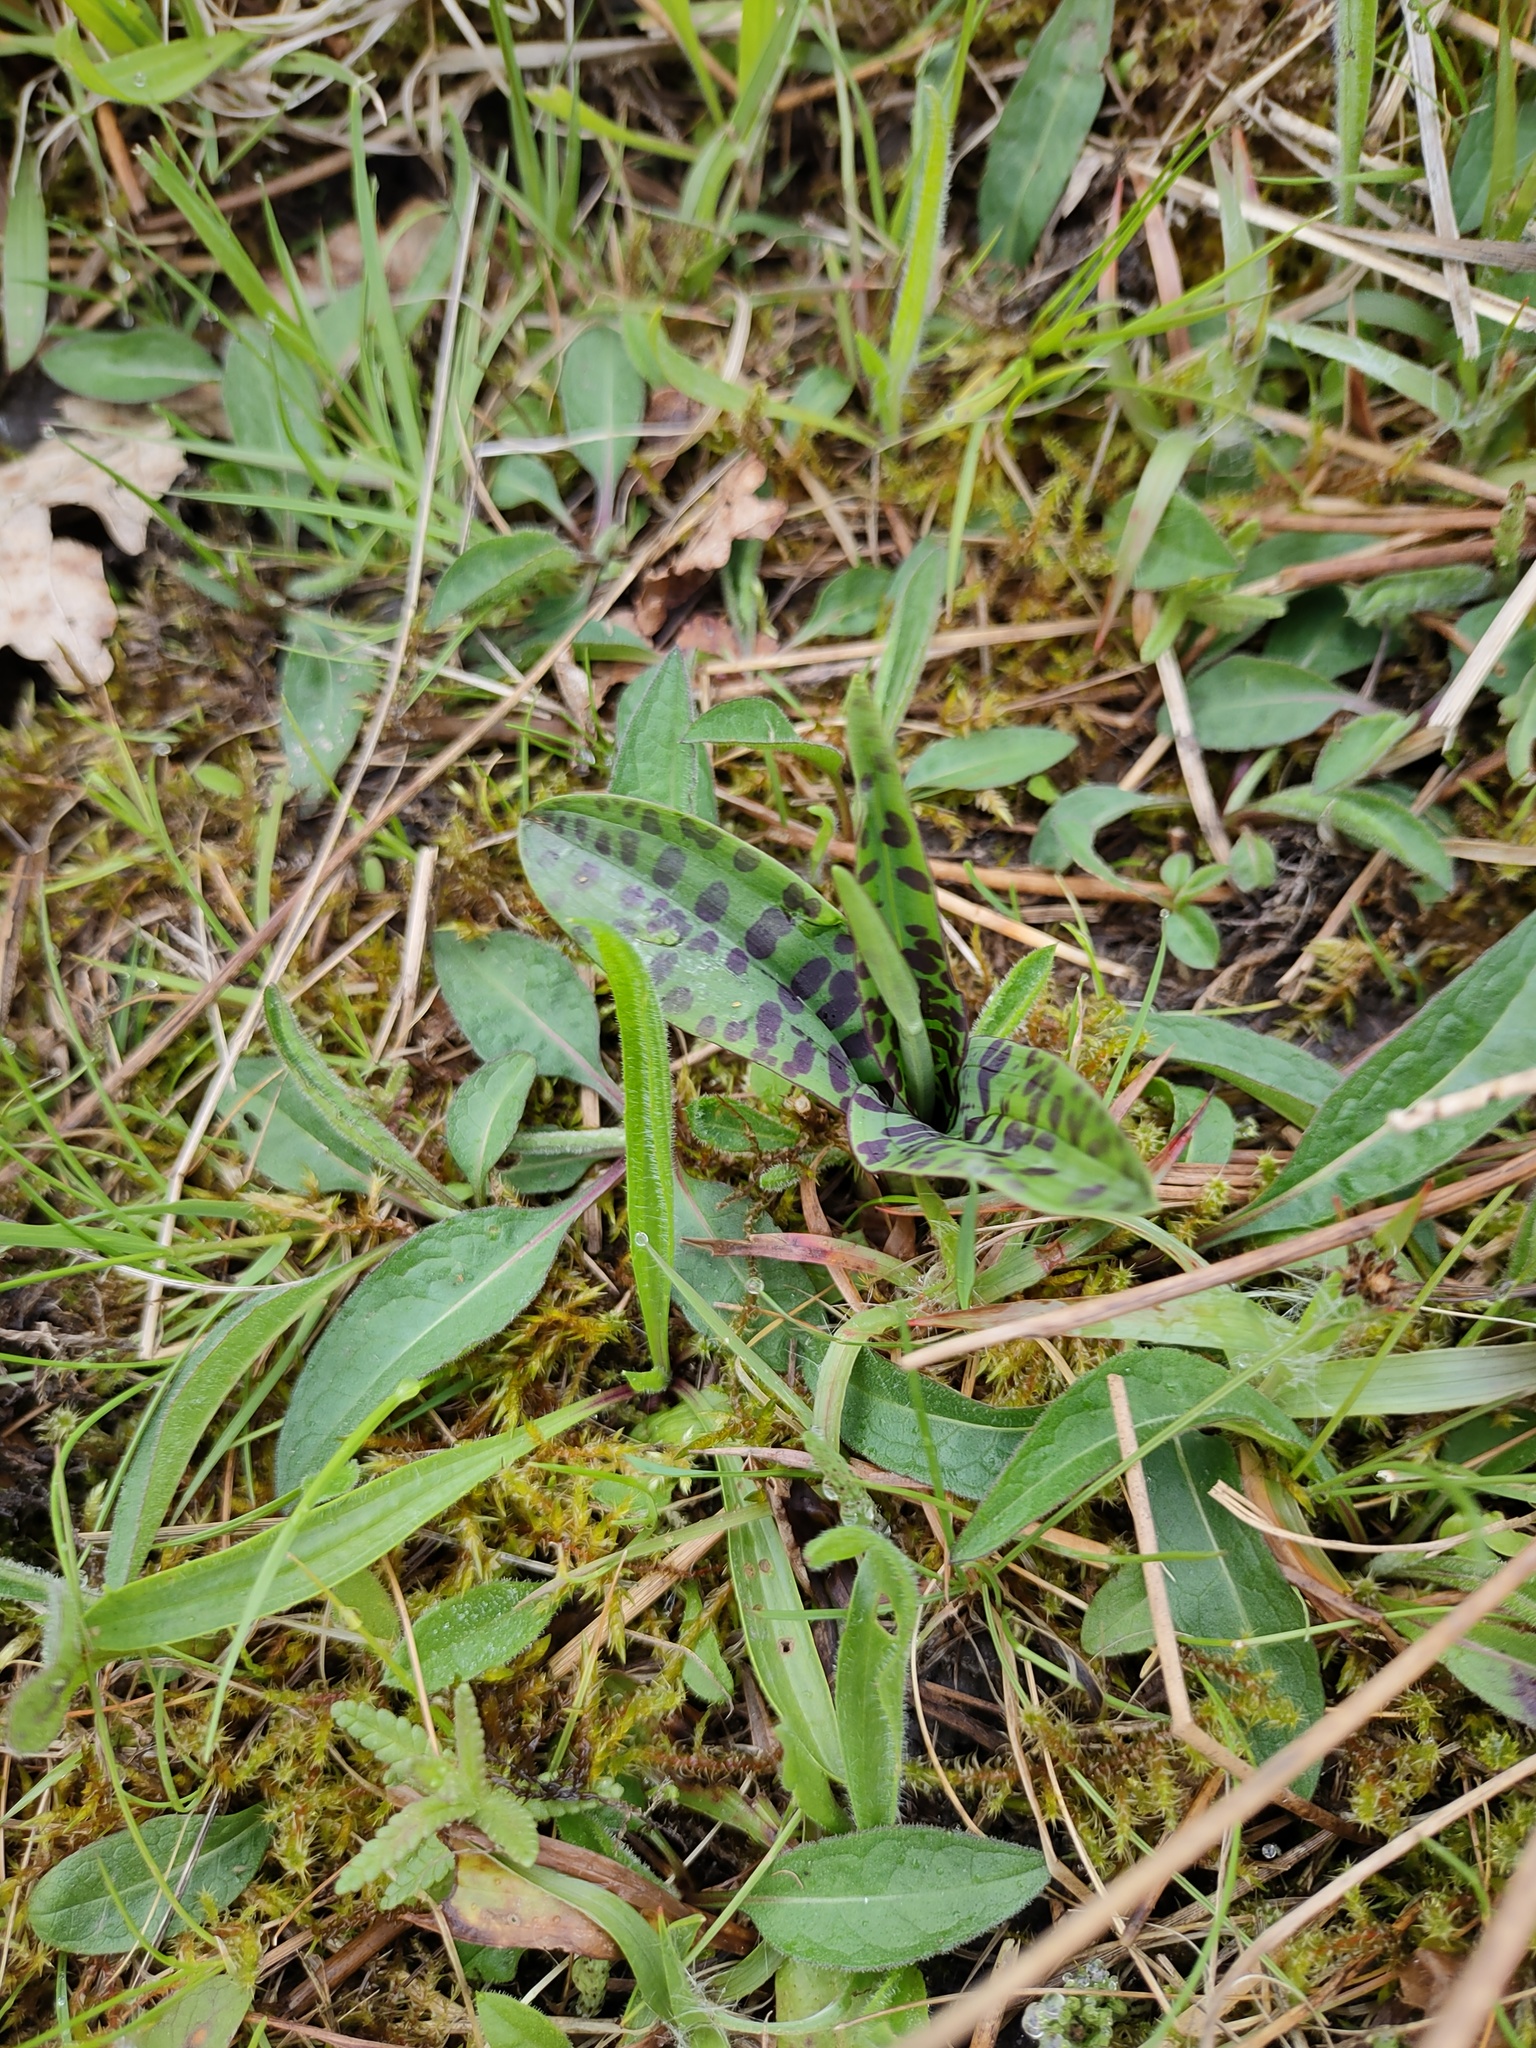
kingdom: Plantae
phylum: Tracheophyta
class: Liliopsida
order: Asparagales
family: Orchidaceae
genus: Dactylorhiza
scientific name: Dactylorhiza maculata
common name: Heath spotted-orchid
